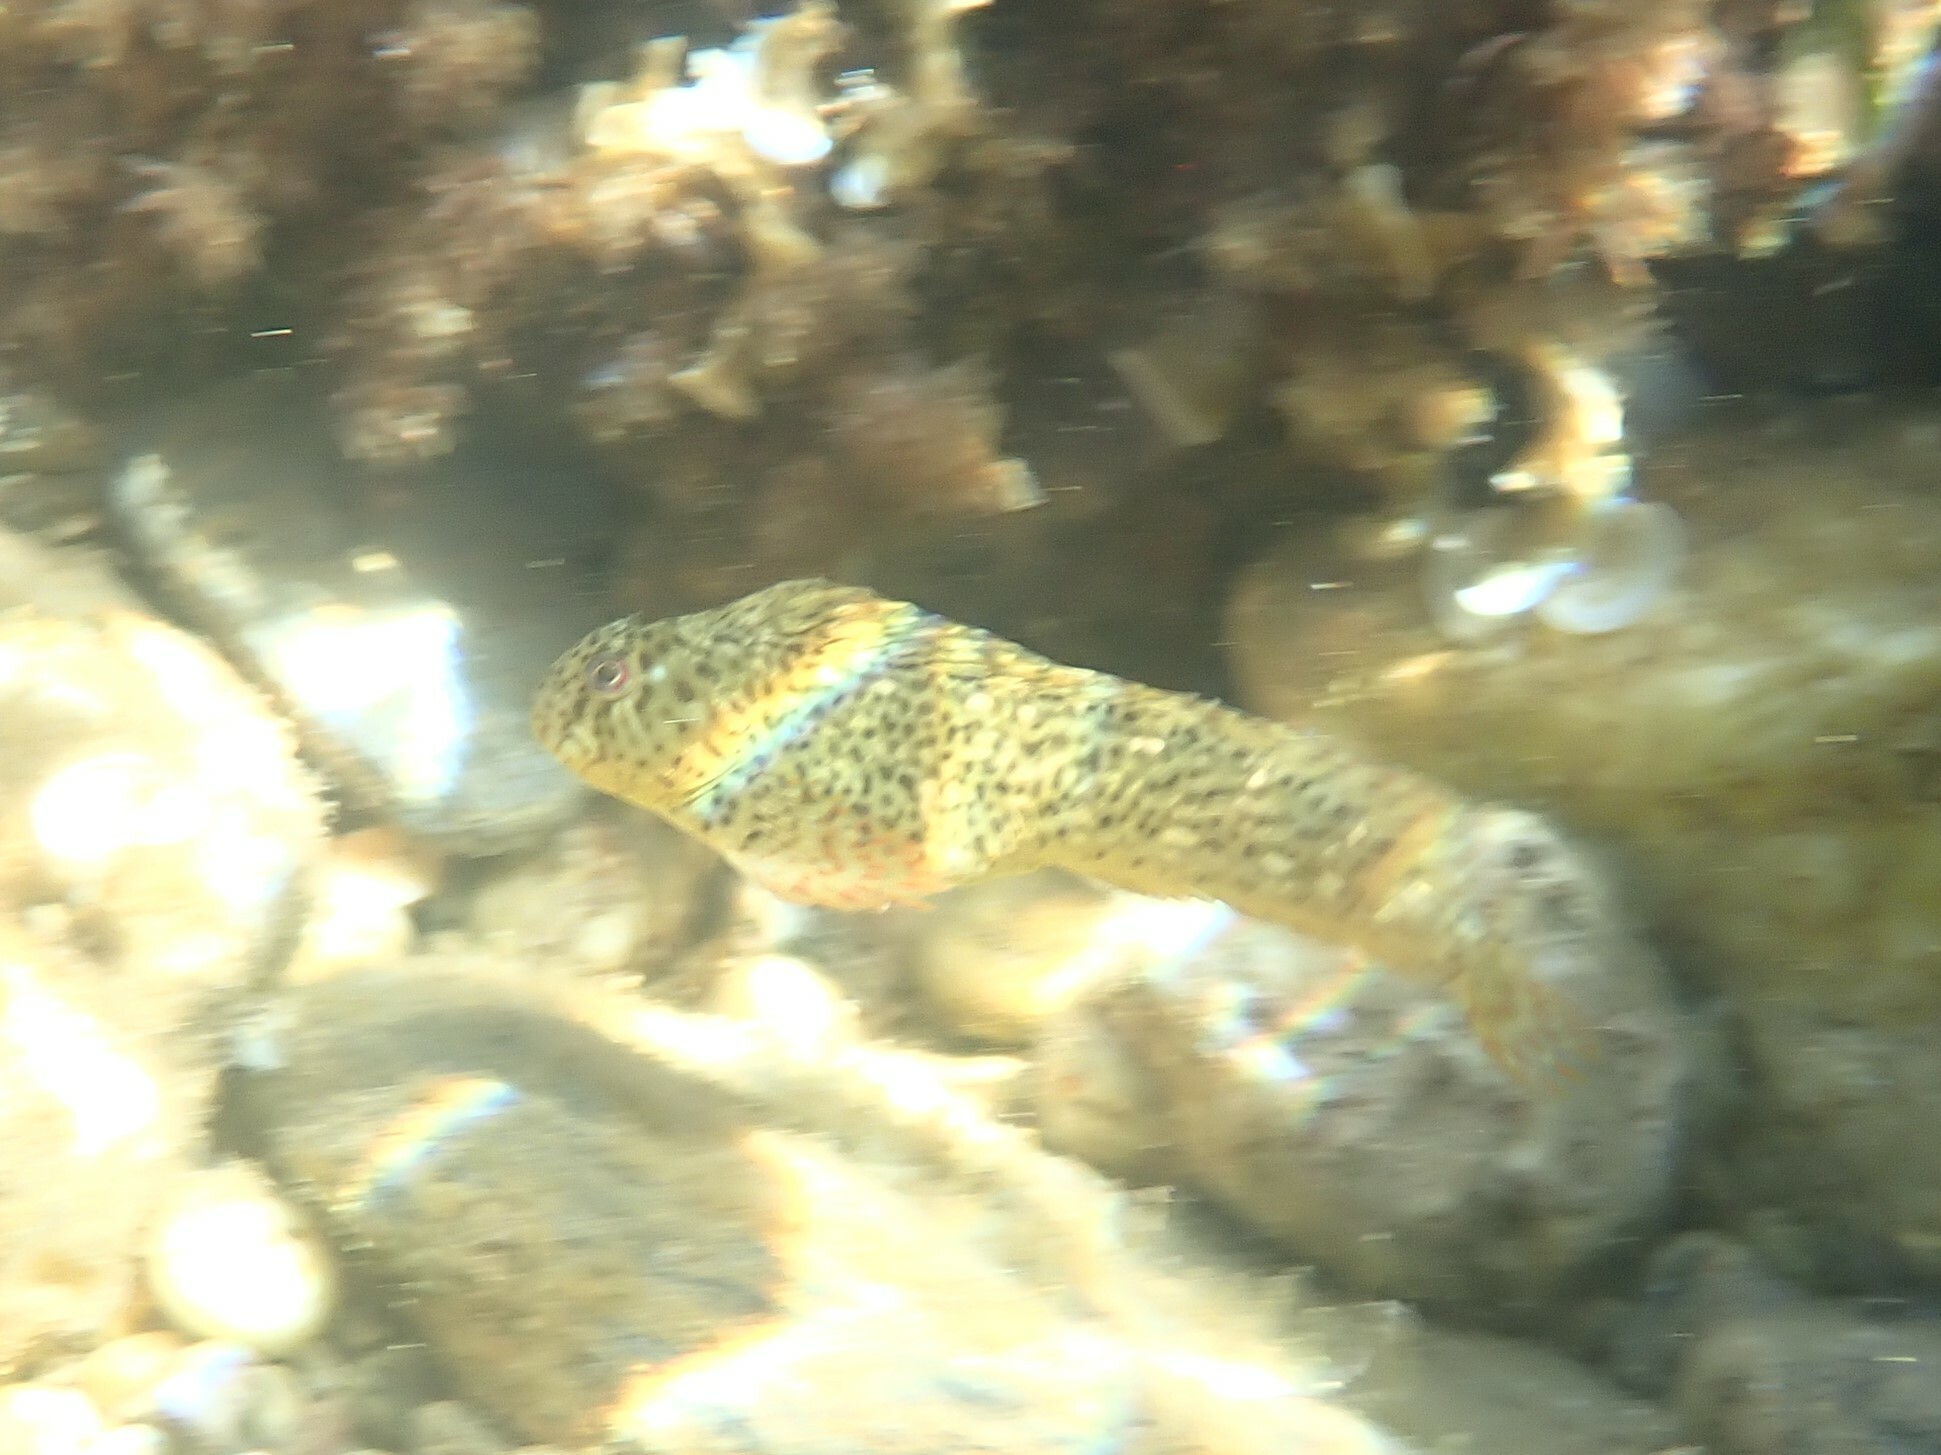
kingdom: Animalia
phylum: Chordata
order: Perciformes
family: Blenniidae
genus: Parablennius
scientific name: Parablennius sanguinolentus
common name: Black sea blenny
